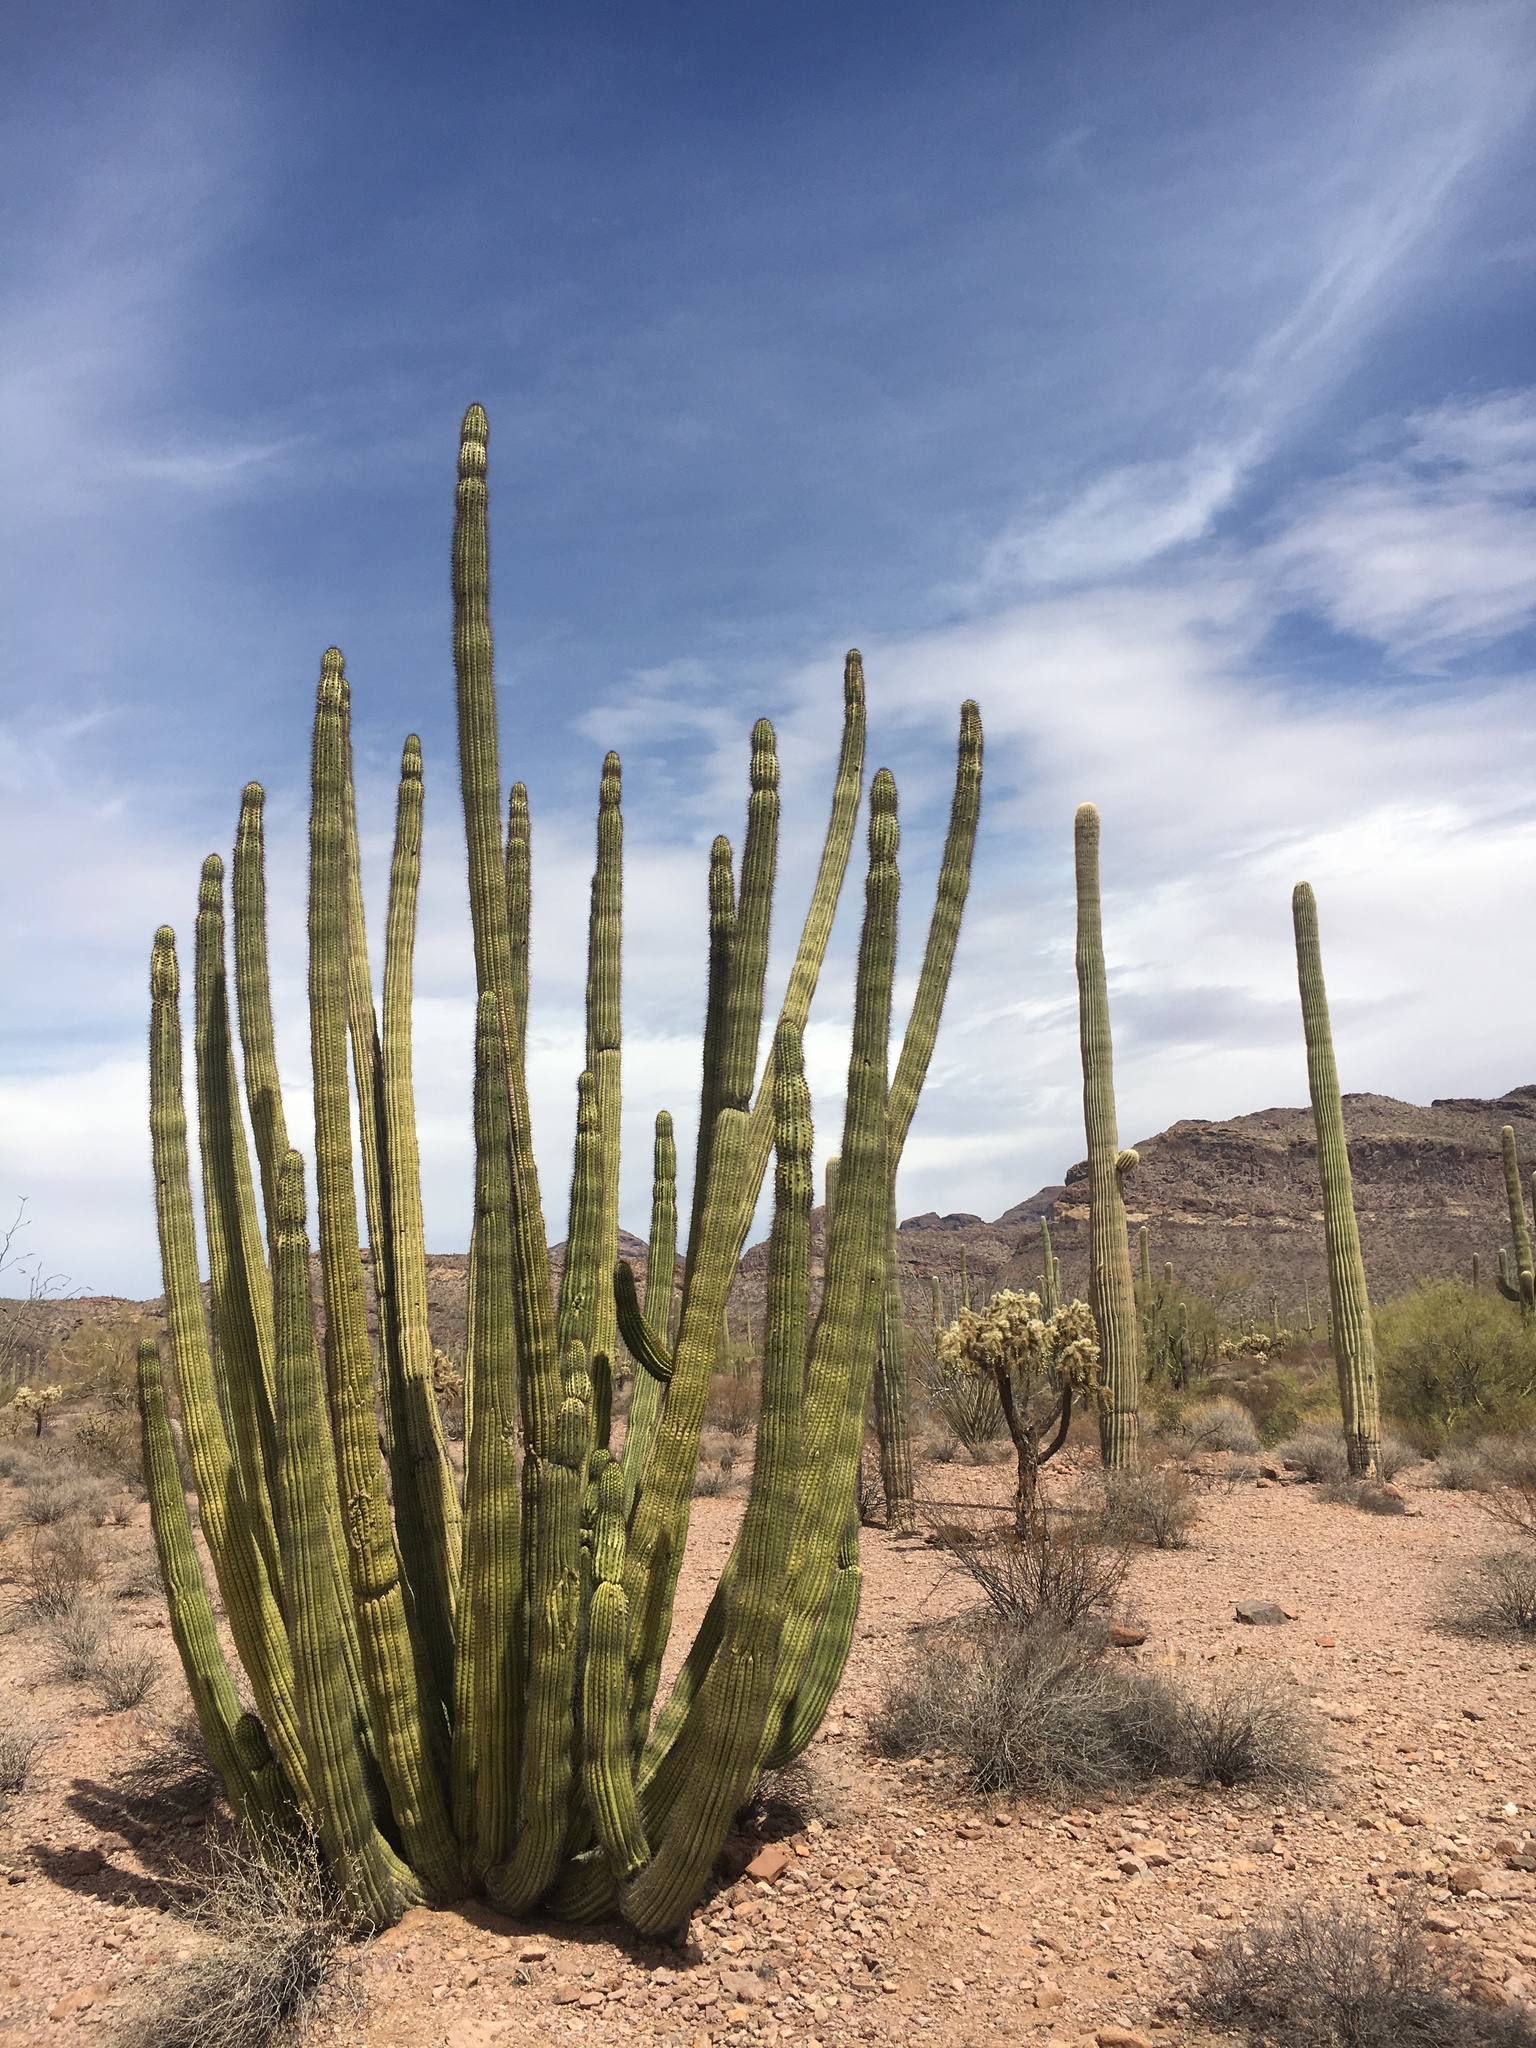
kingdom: Plantae
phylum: Tracheophyta
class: Magnoliopsida
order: Caryophyllales
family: Cactaceae
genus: Stenocereus
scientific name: Stenocereus thurberi
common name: Organ pipe cactus
